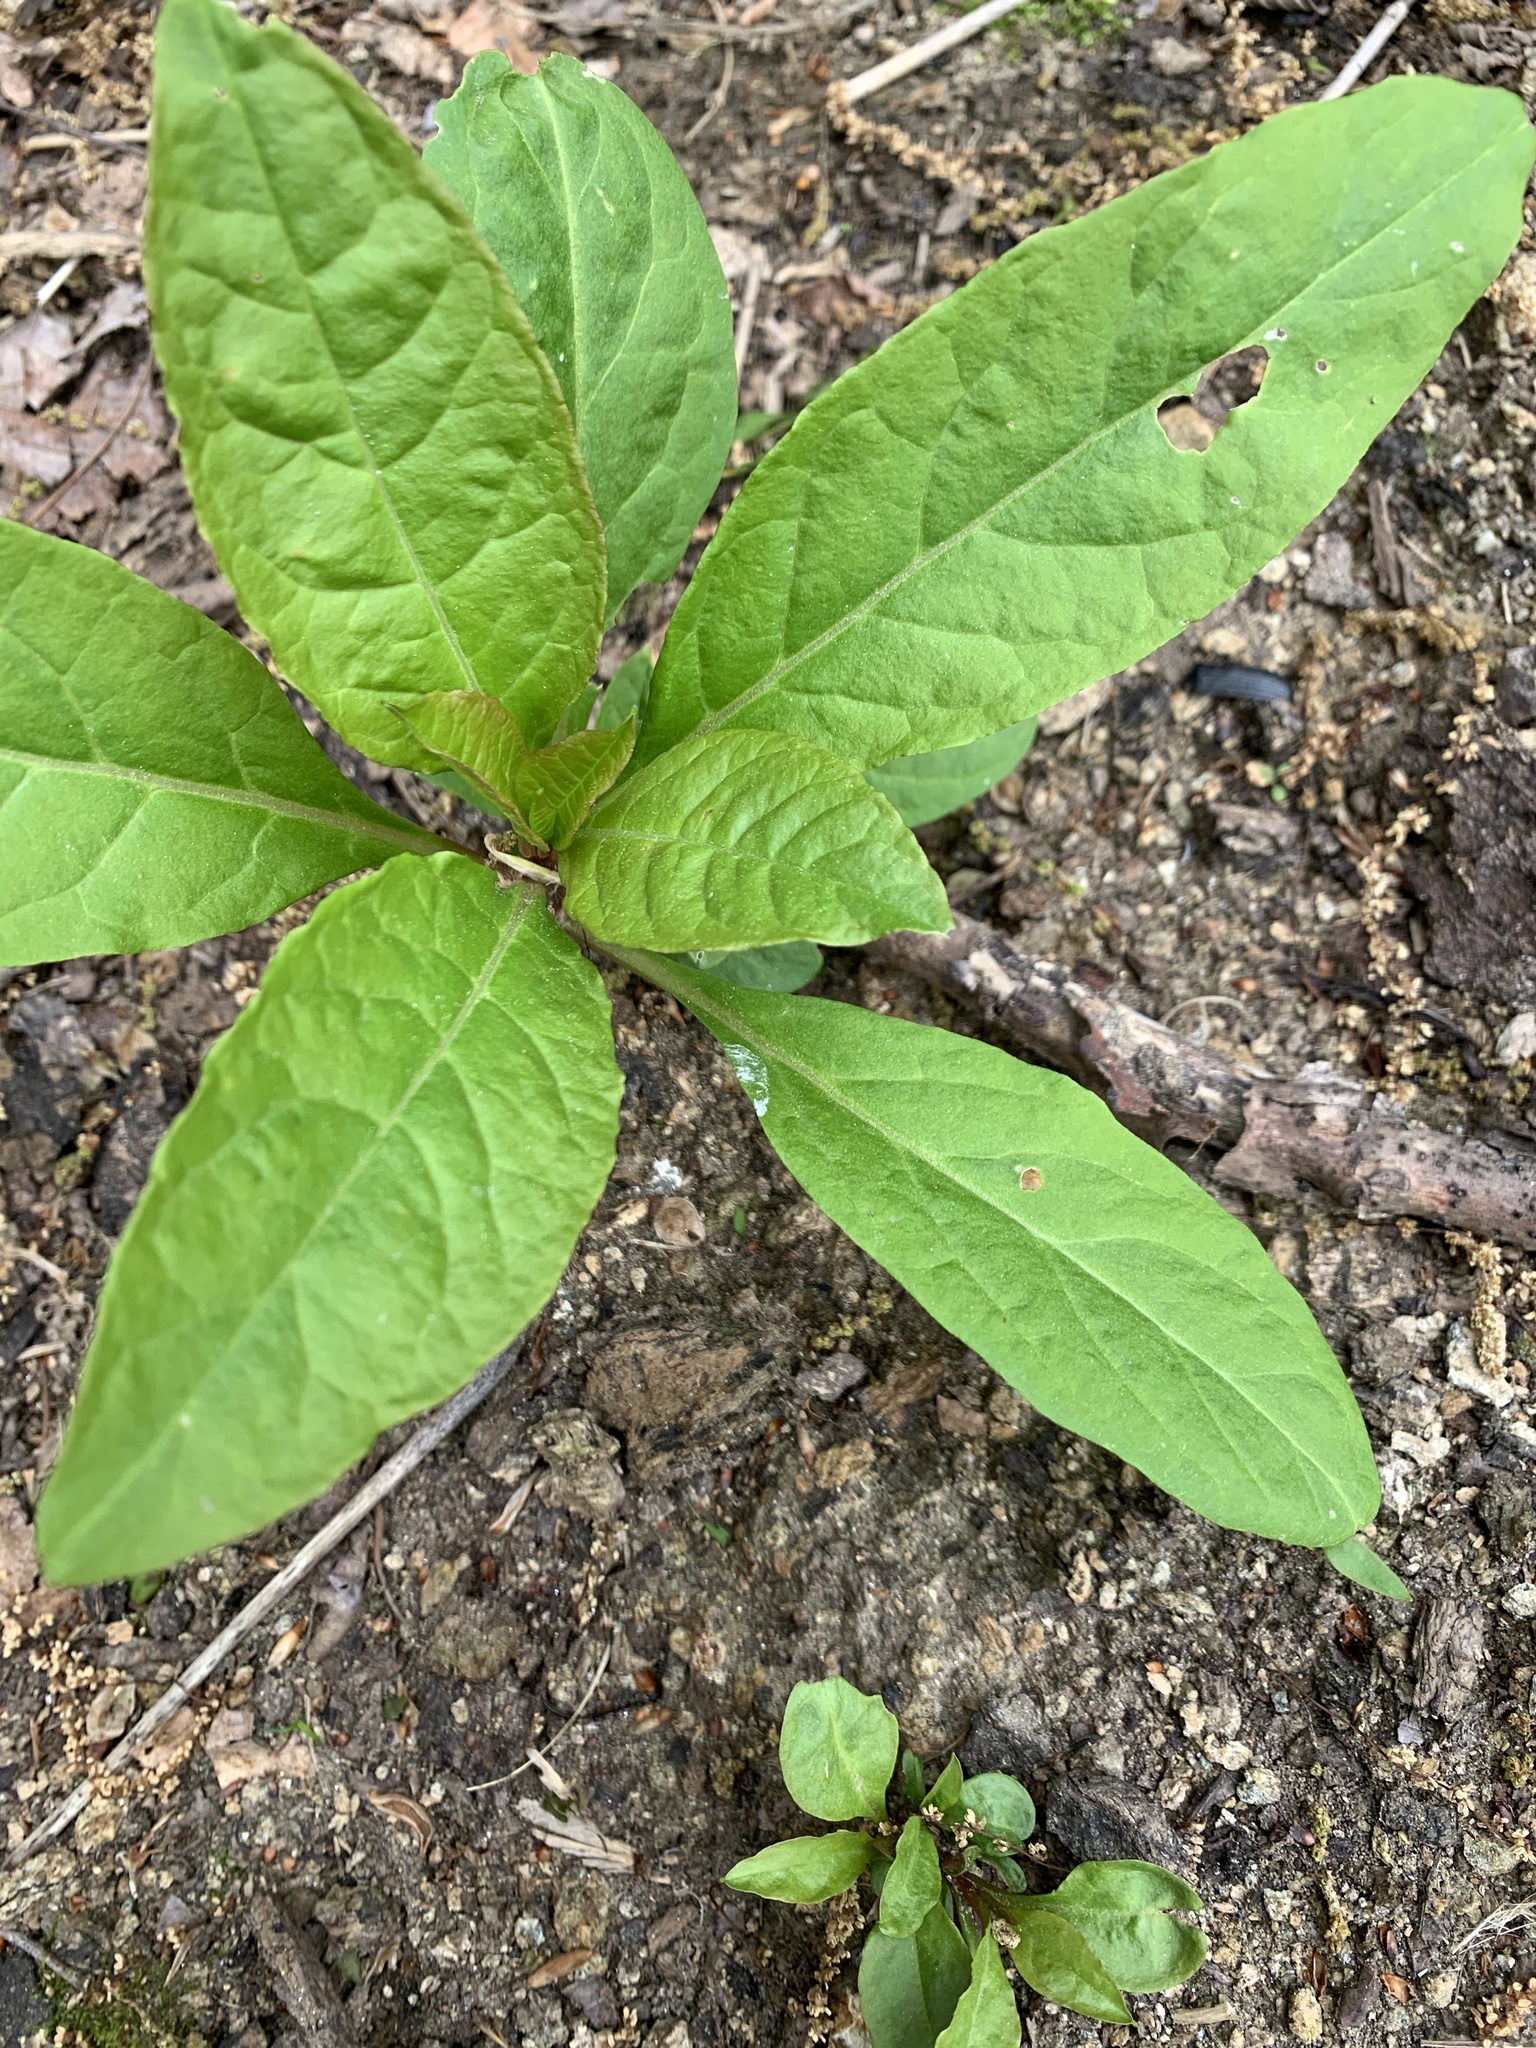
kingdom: Plantae
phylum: Tracheophyta
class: Magnoliopsida
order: Caryophyllales
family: Phytolaccaceae
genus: Phytolacca
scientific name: Phytolacca americana
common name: American pokeweed
